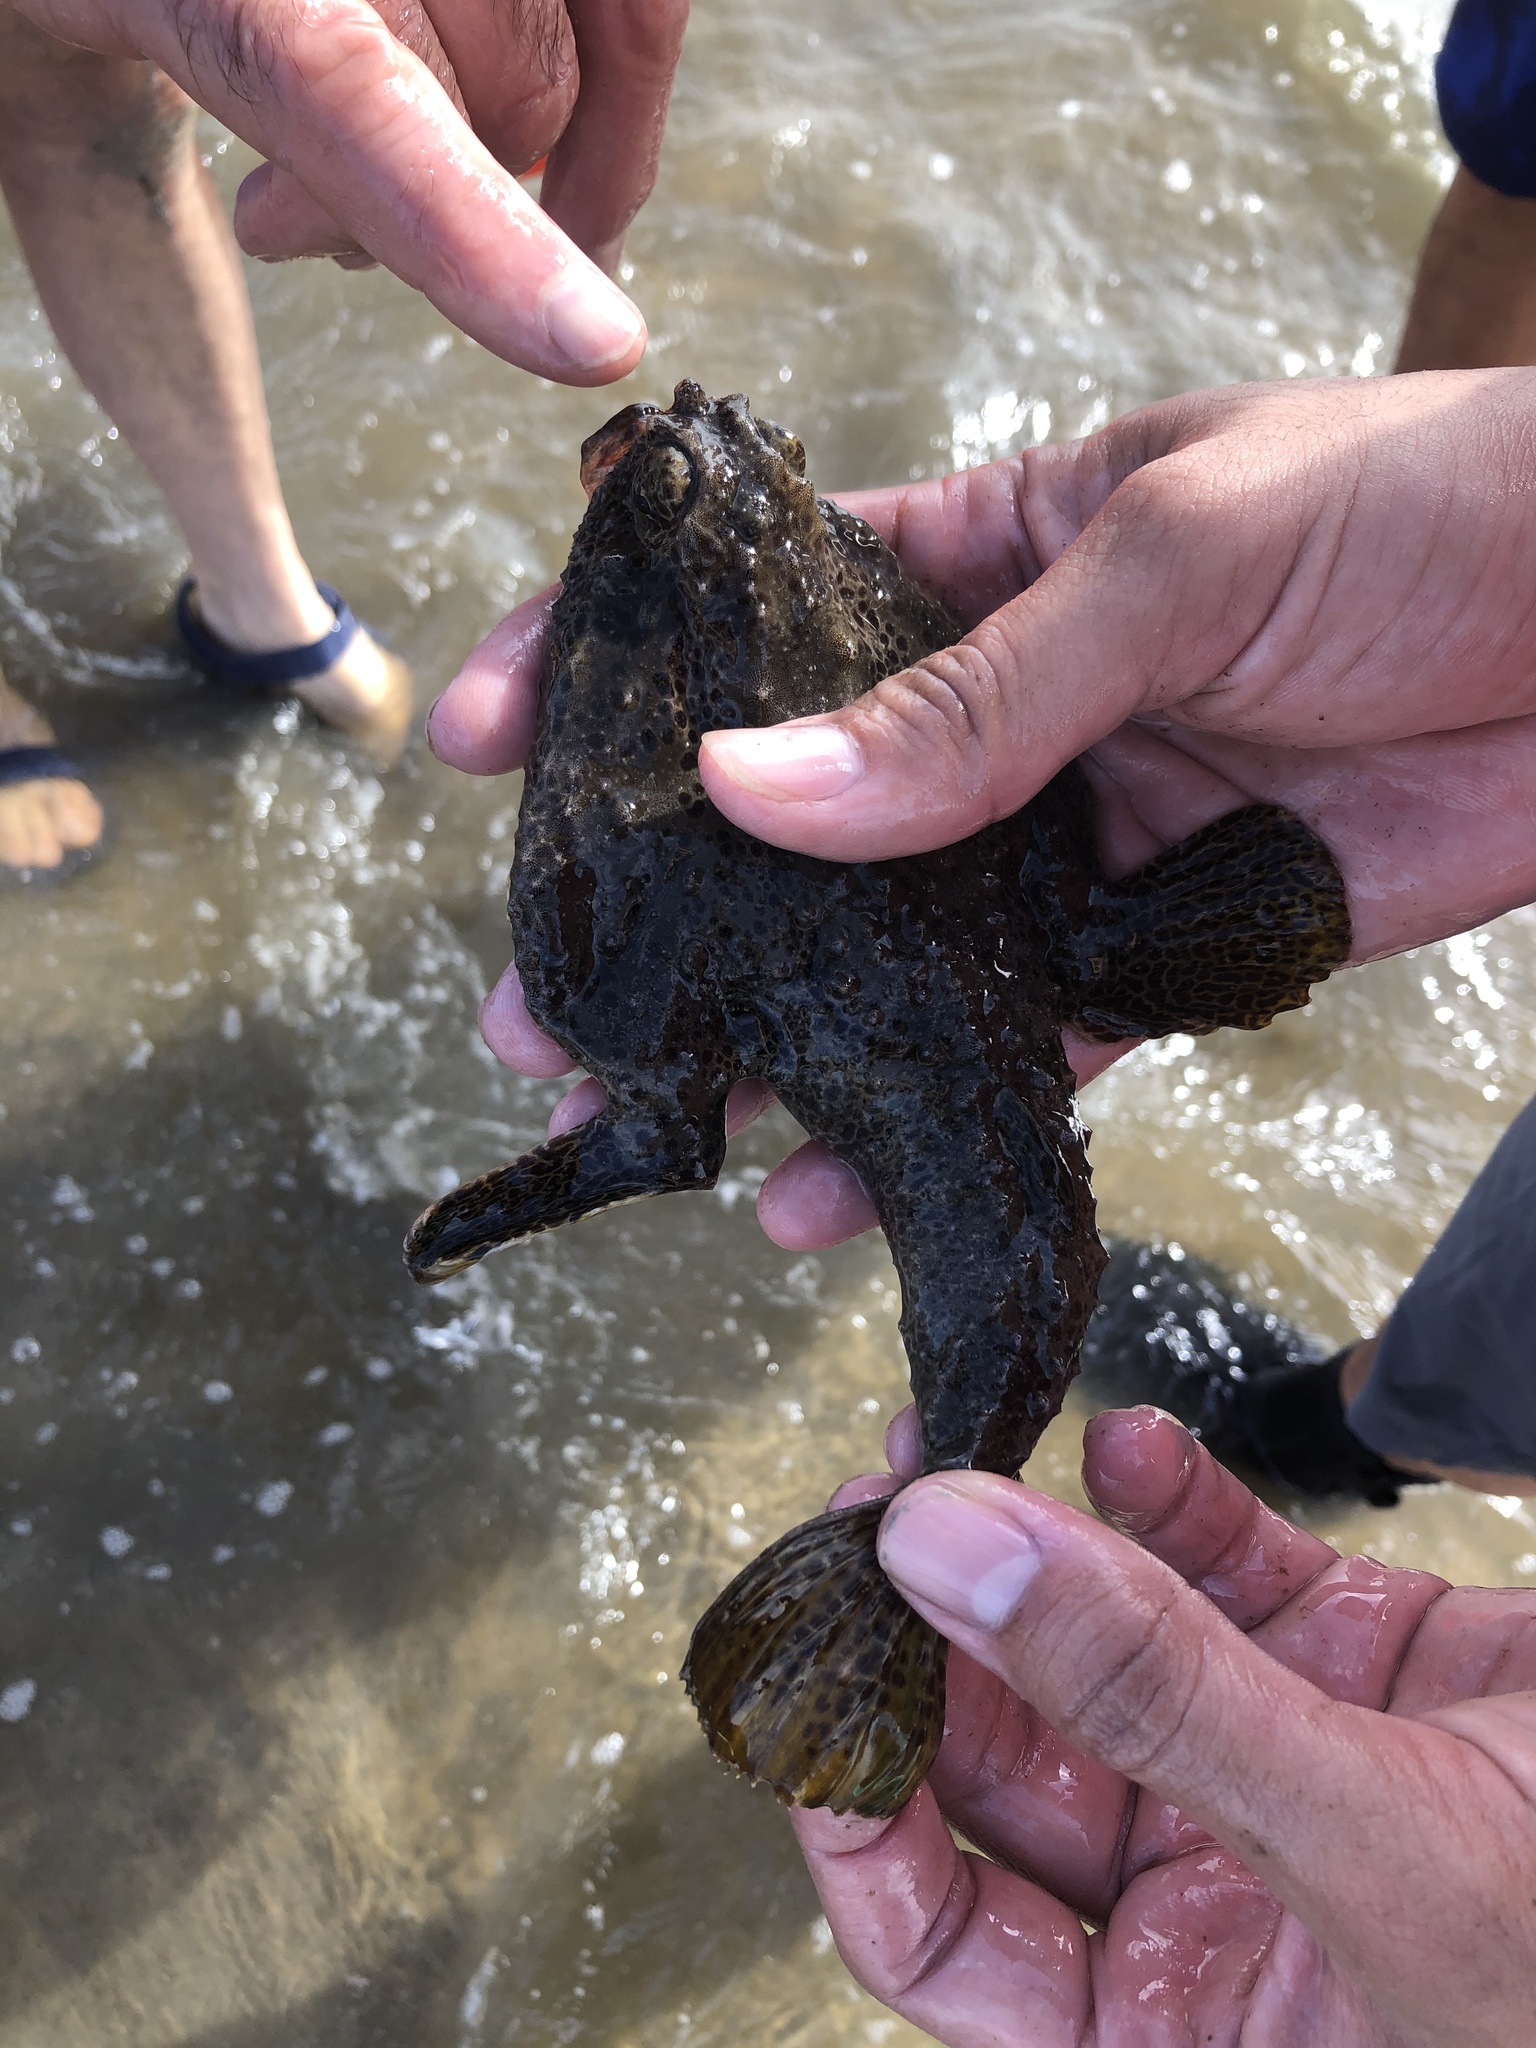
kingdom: Animalia
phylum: Chordata
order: Lophiiformes
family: Ogcocephalidae
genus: Ogcocephalus
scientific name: Ogcocephalus cubifrons
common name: Polka-dot batfish
